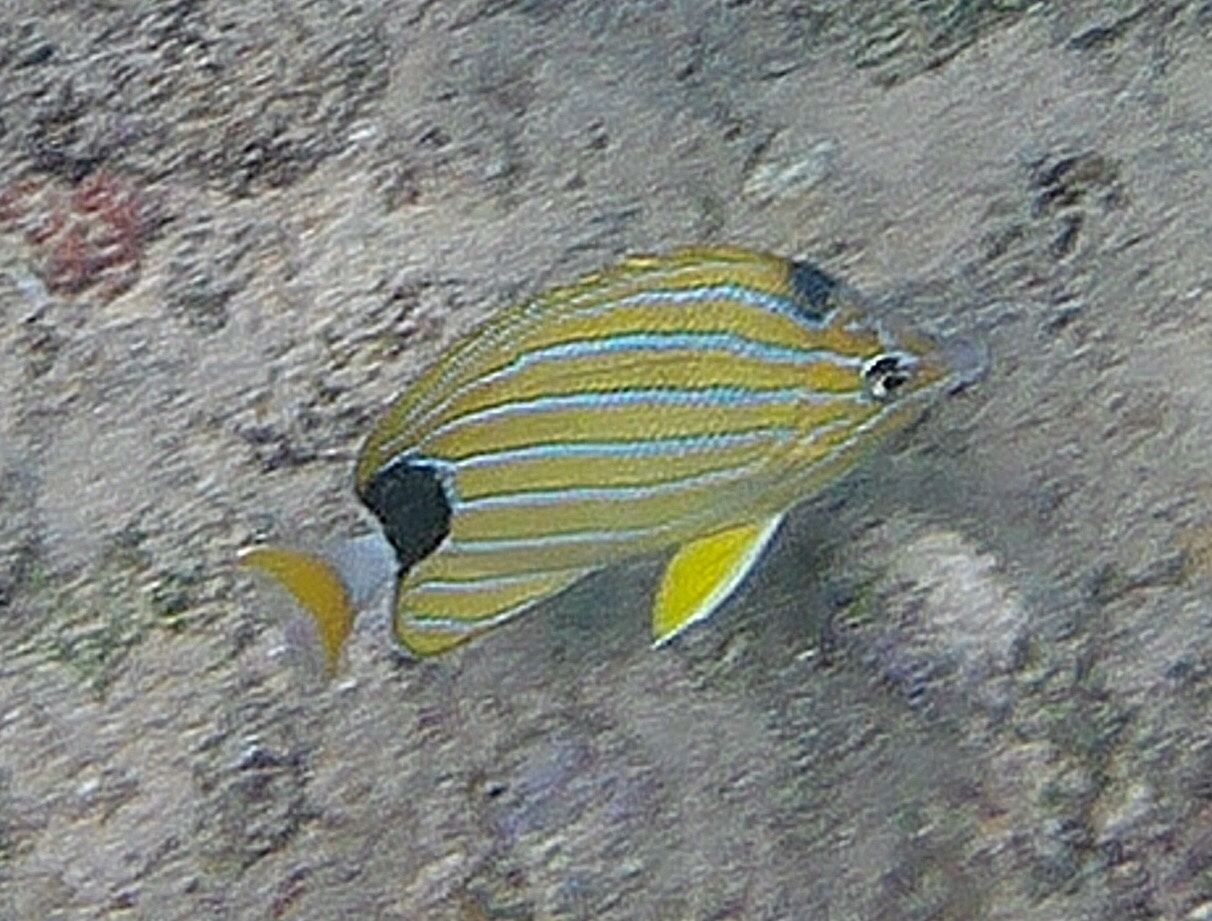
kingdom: Animalia
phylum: Chordata
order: Perciformes
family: Chaetodontidae
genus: Chaetodon
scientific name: Chaetodon fremblii
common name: Bluestriped butterflyfish
